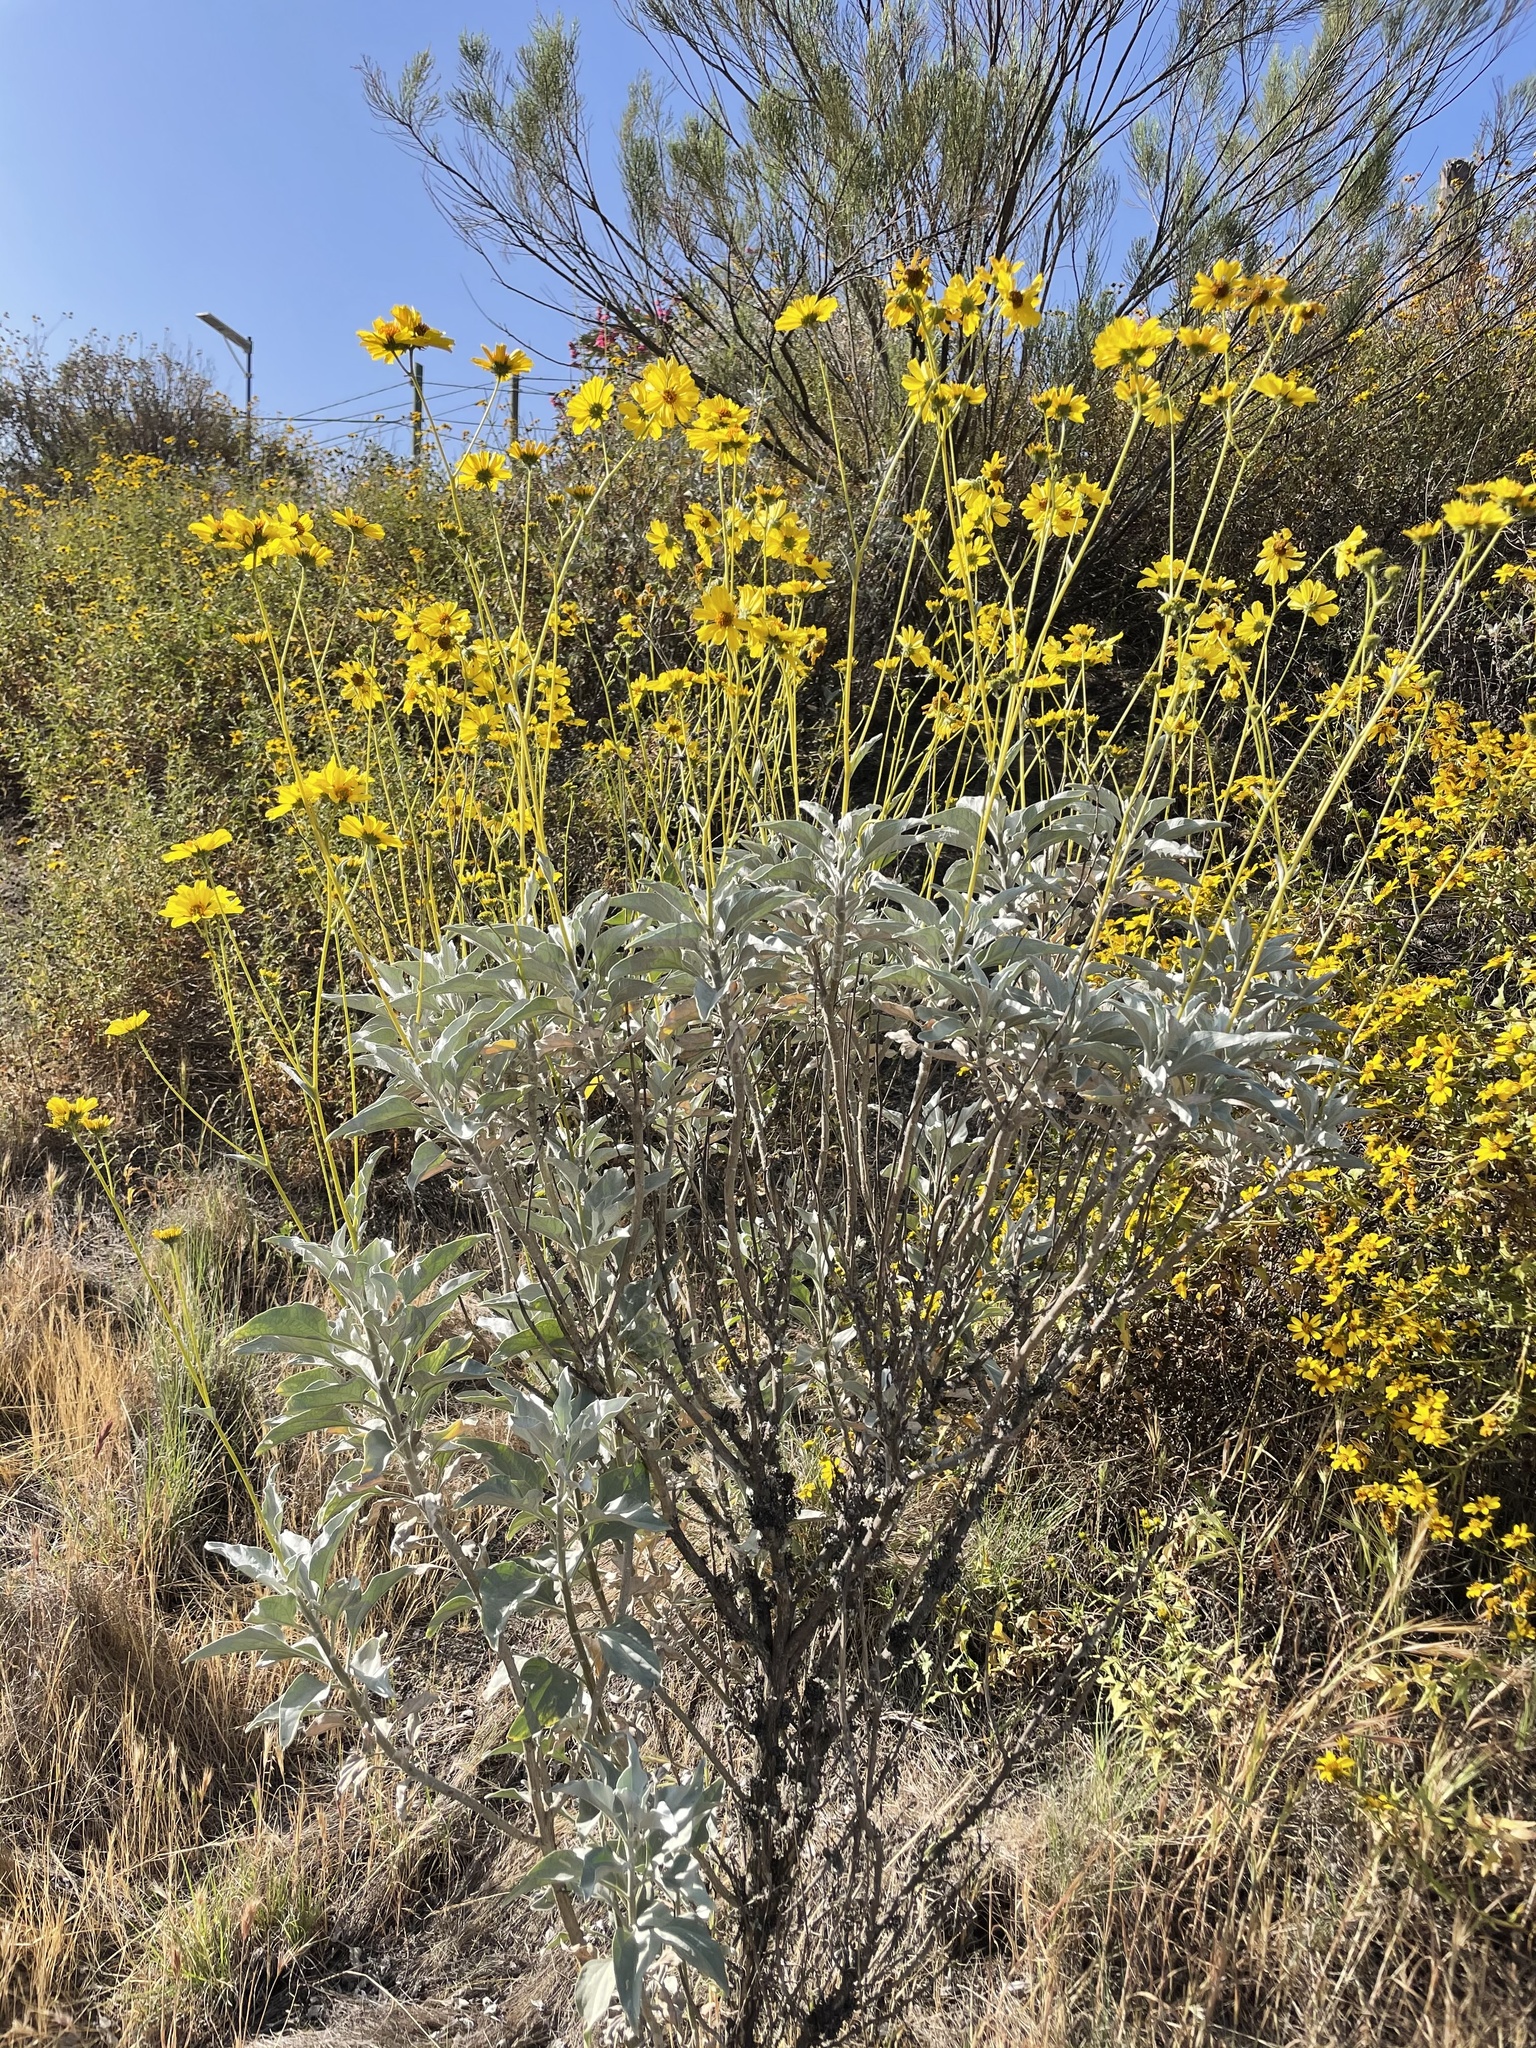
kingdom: Plantae
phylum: Tracheophyta
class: Magnoliopsida
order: Asterales
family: Asteraceae
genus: Encelia
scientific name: Encelia farinosa
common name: Brittlebush
